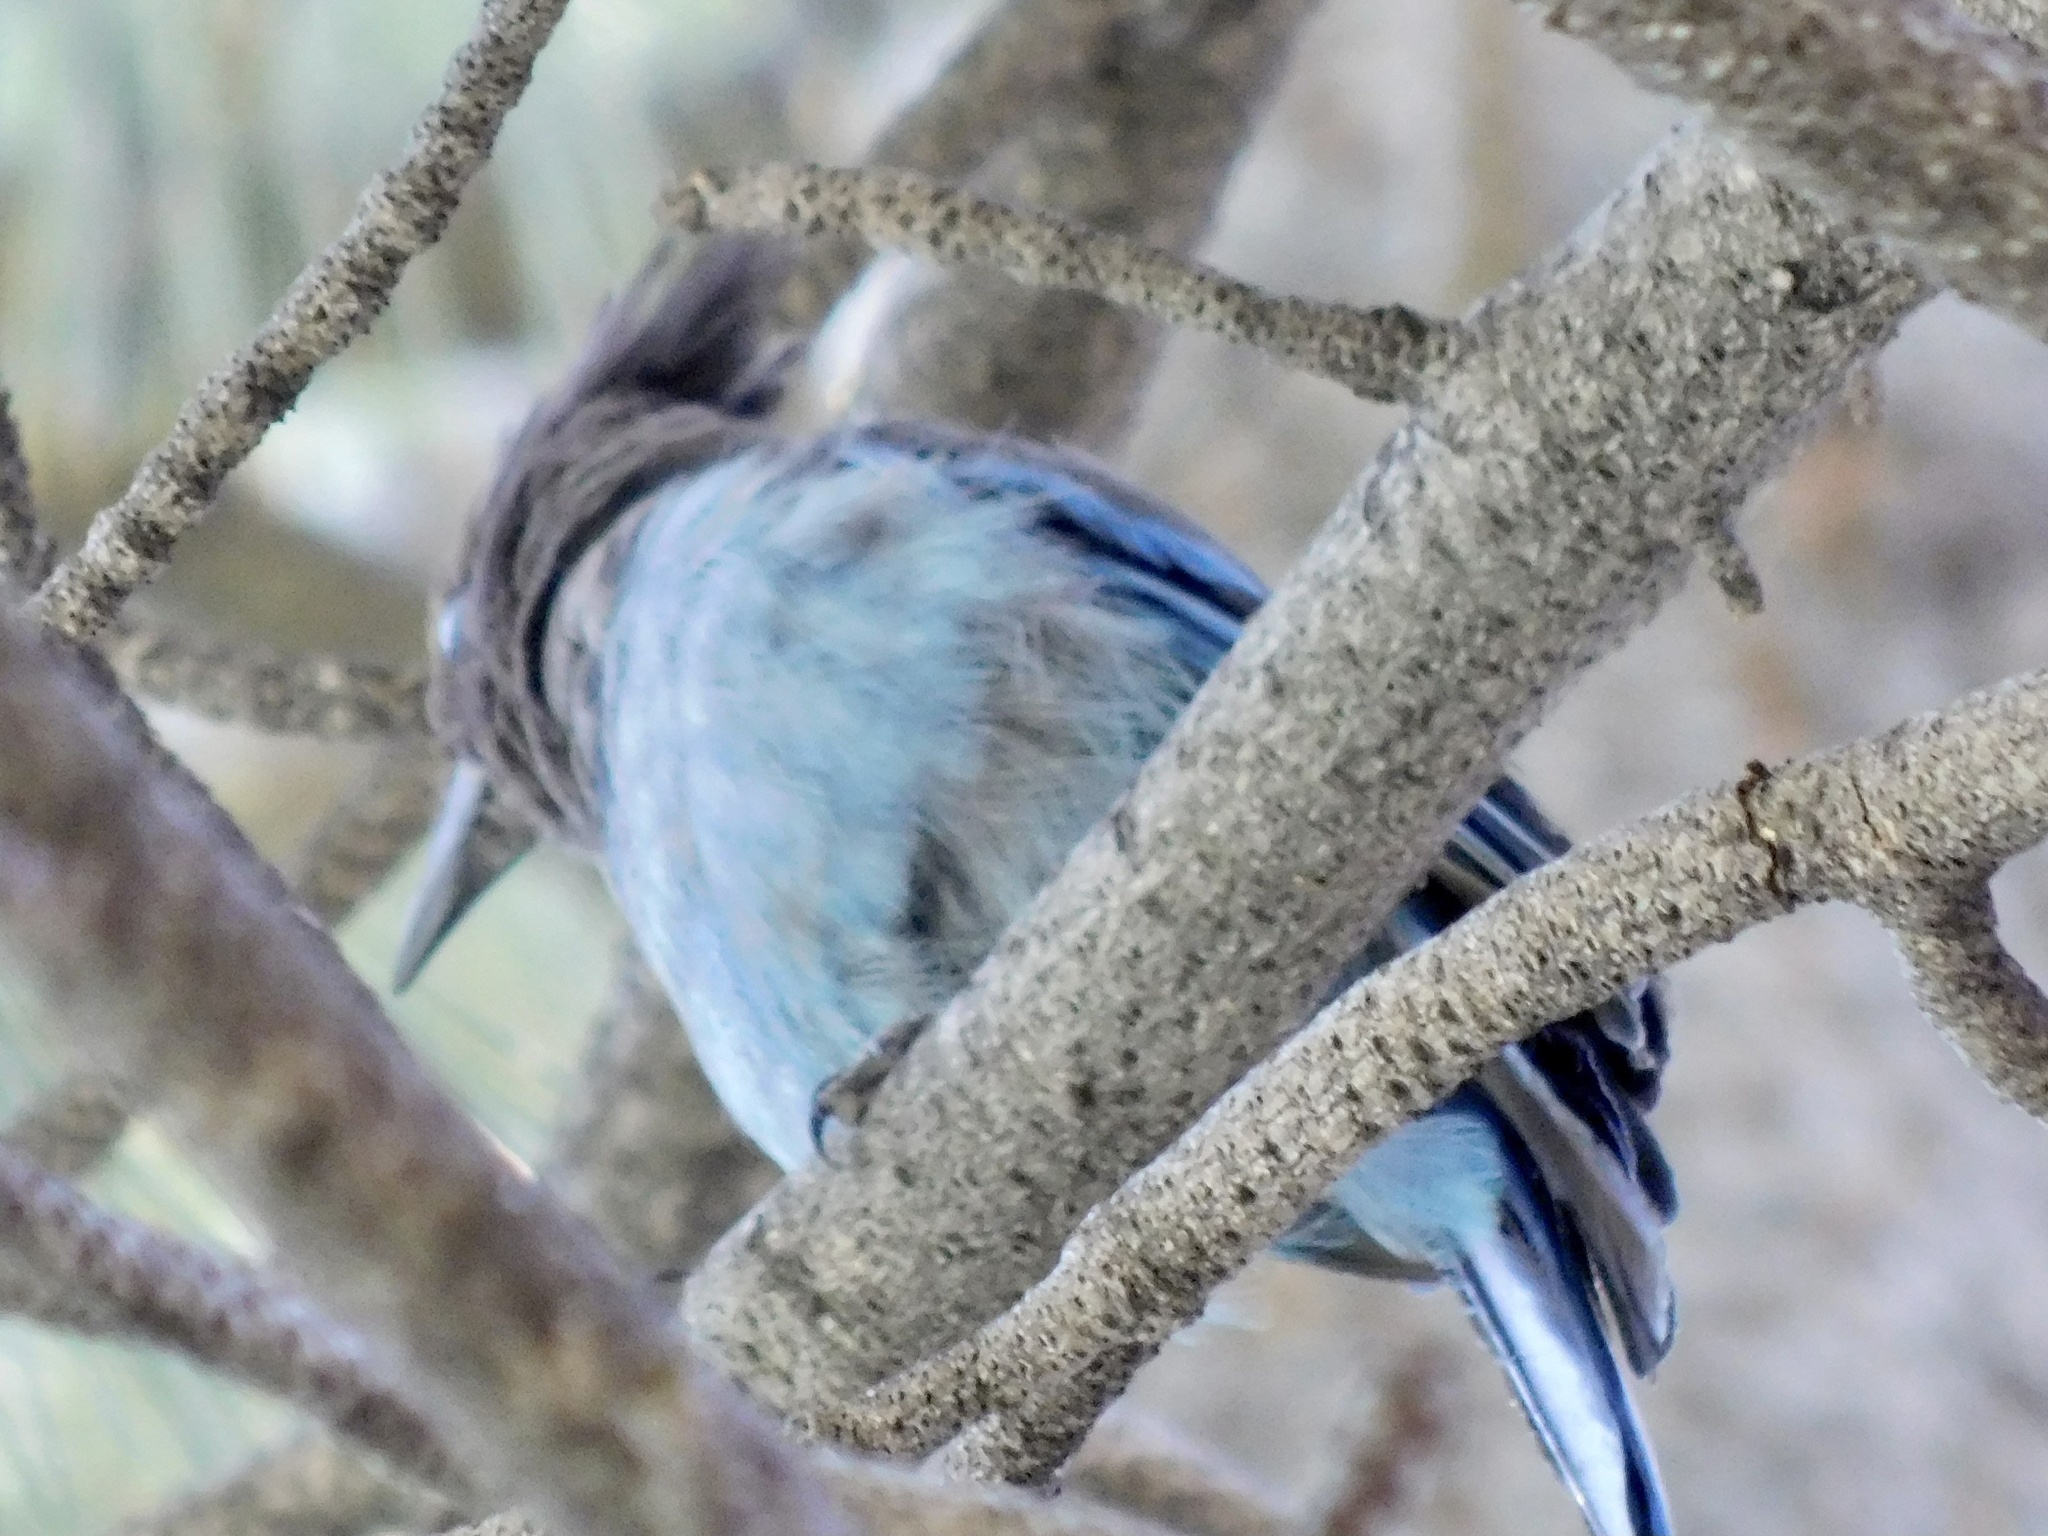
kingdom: Animalia
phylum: Chordata
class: Aves
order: Passeriformes
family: Corvidae
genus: Cyanocitta
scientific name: Cyanocitta stelleri
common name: Steller's jay
